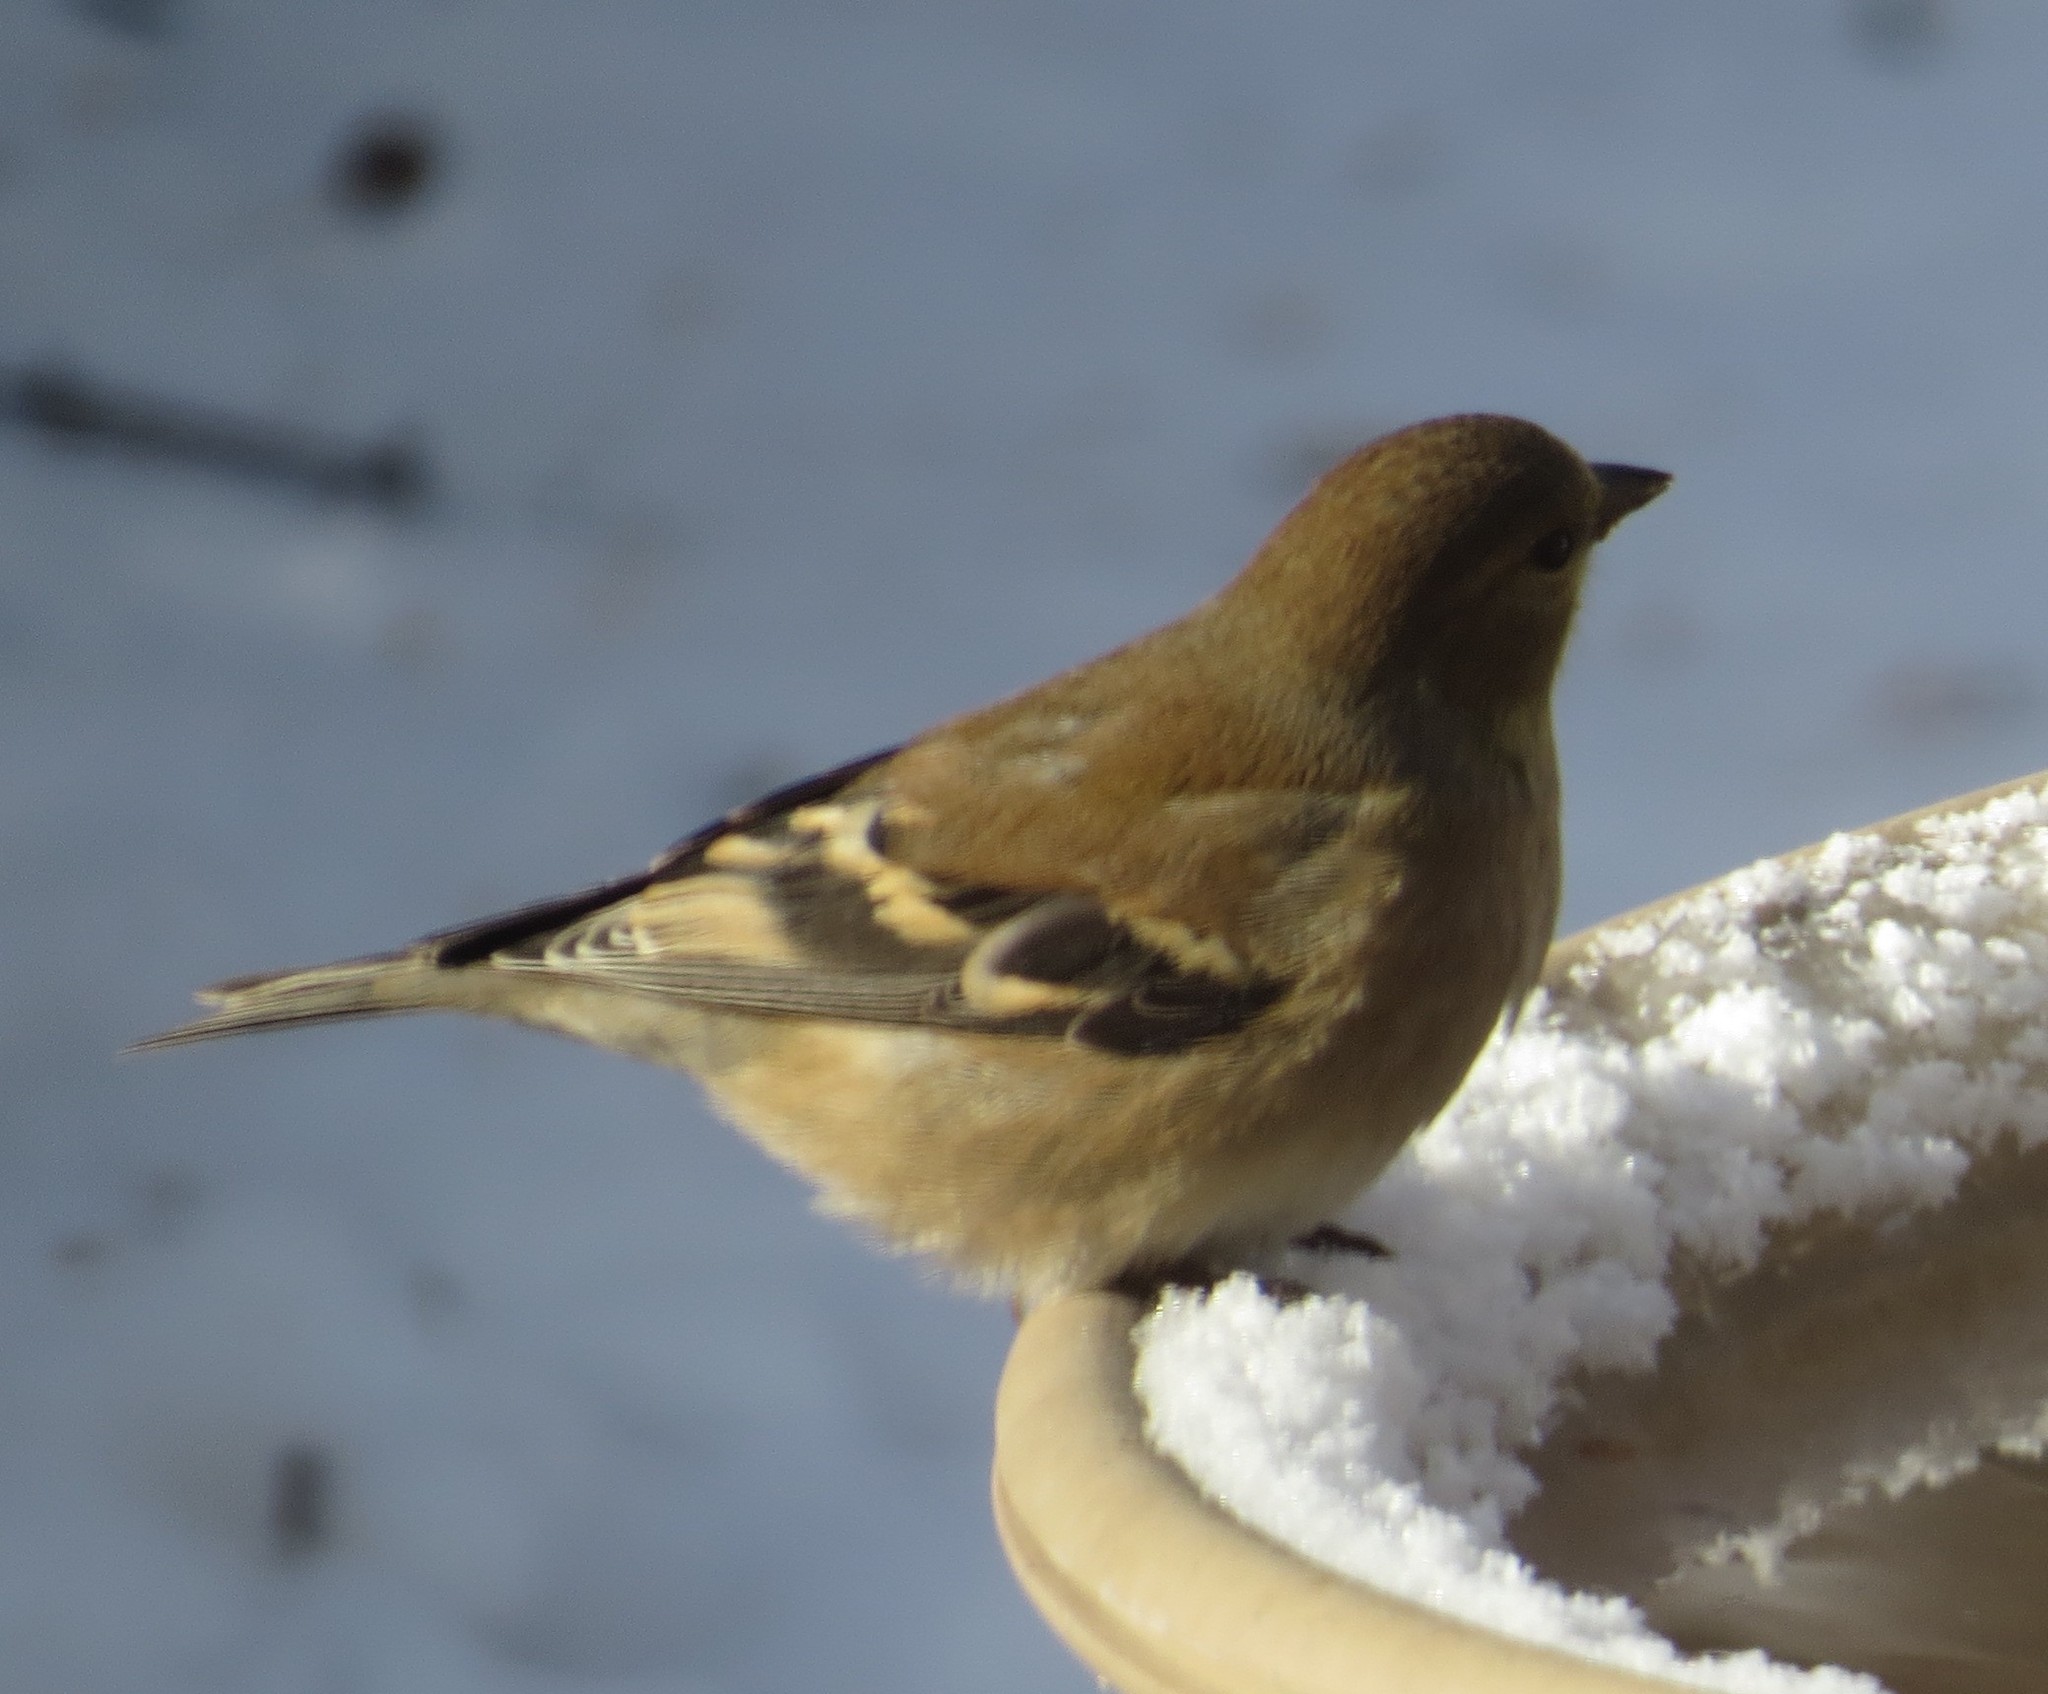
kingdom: Animalia
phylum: Chordata
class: Aves
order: Passeriformes
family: Fringillidae
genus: Spinus
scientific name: Spinus tristis
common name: American goldfinch
